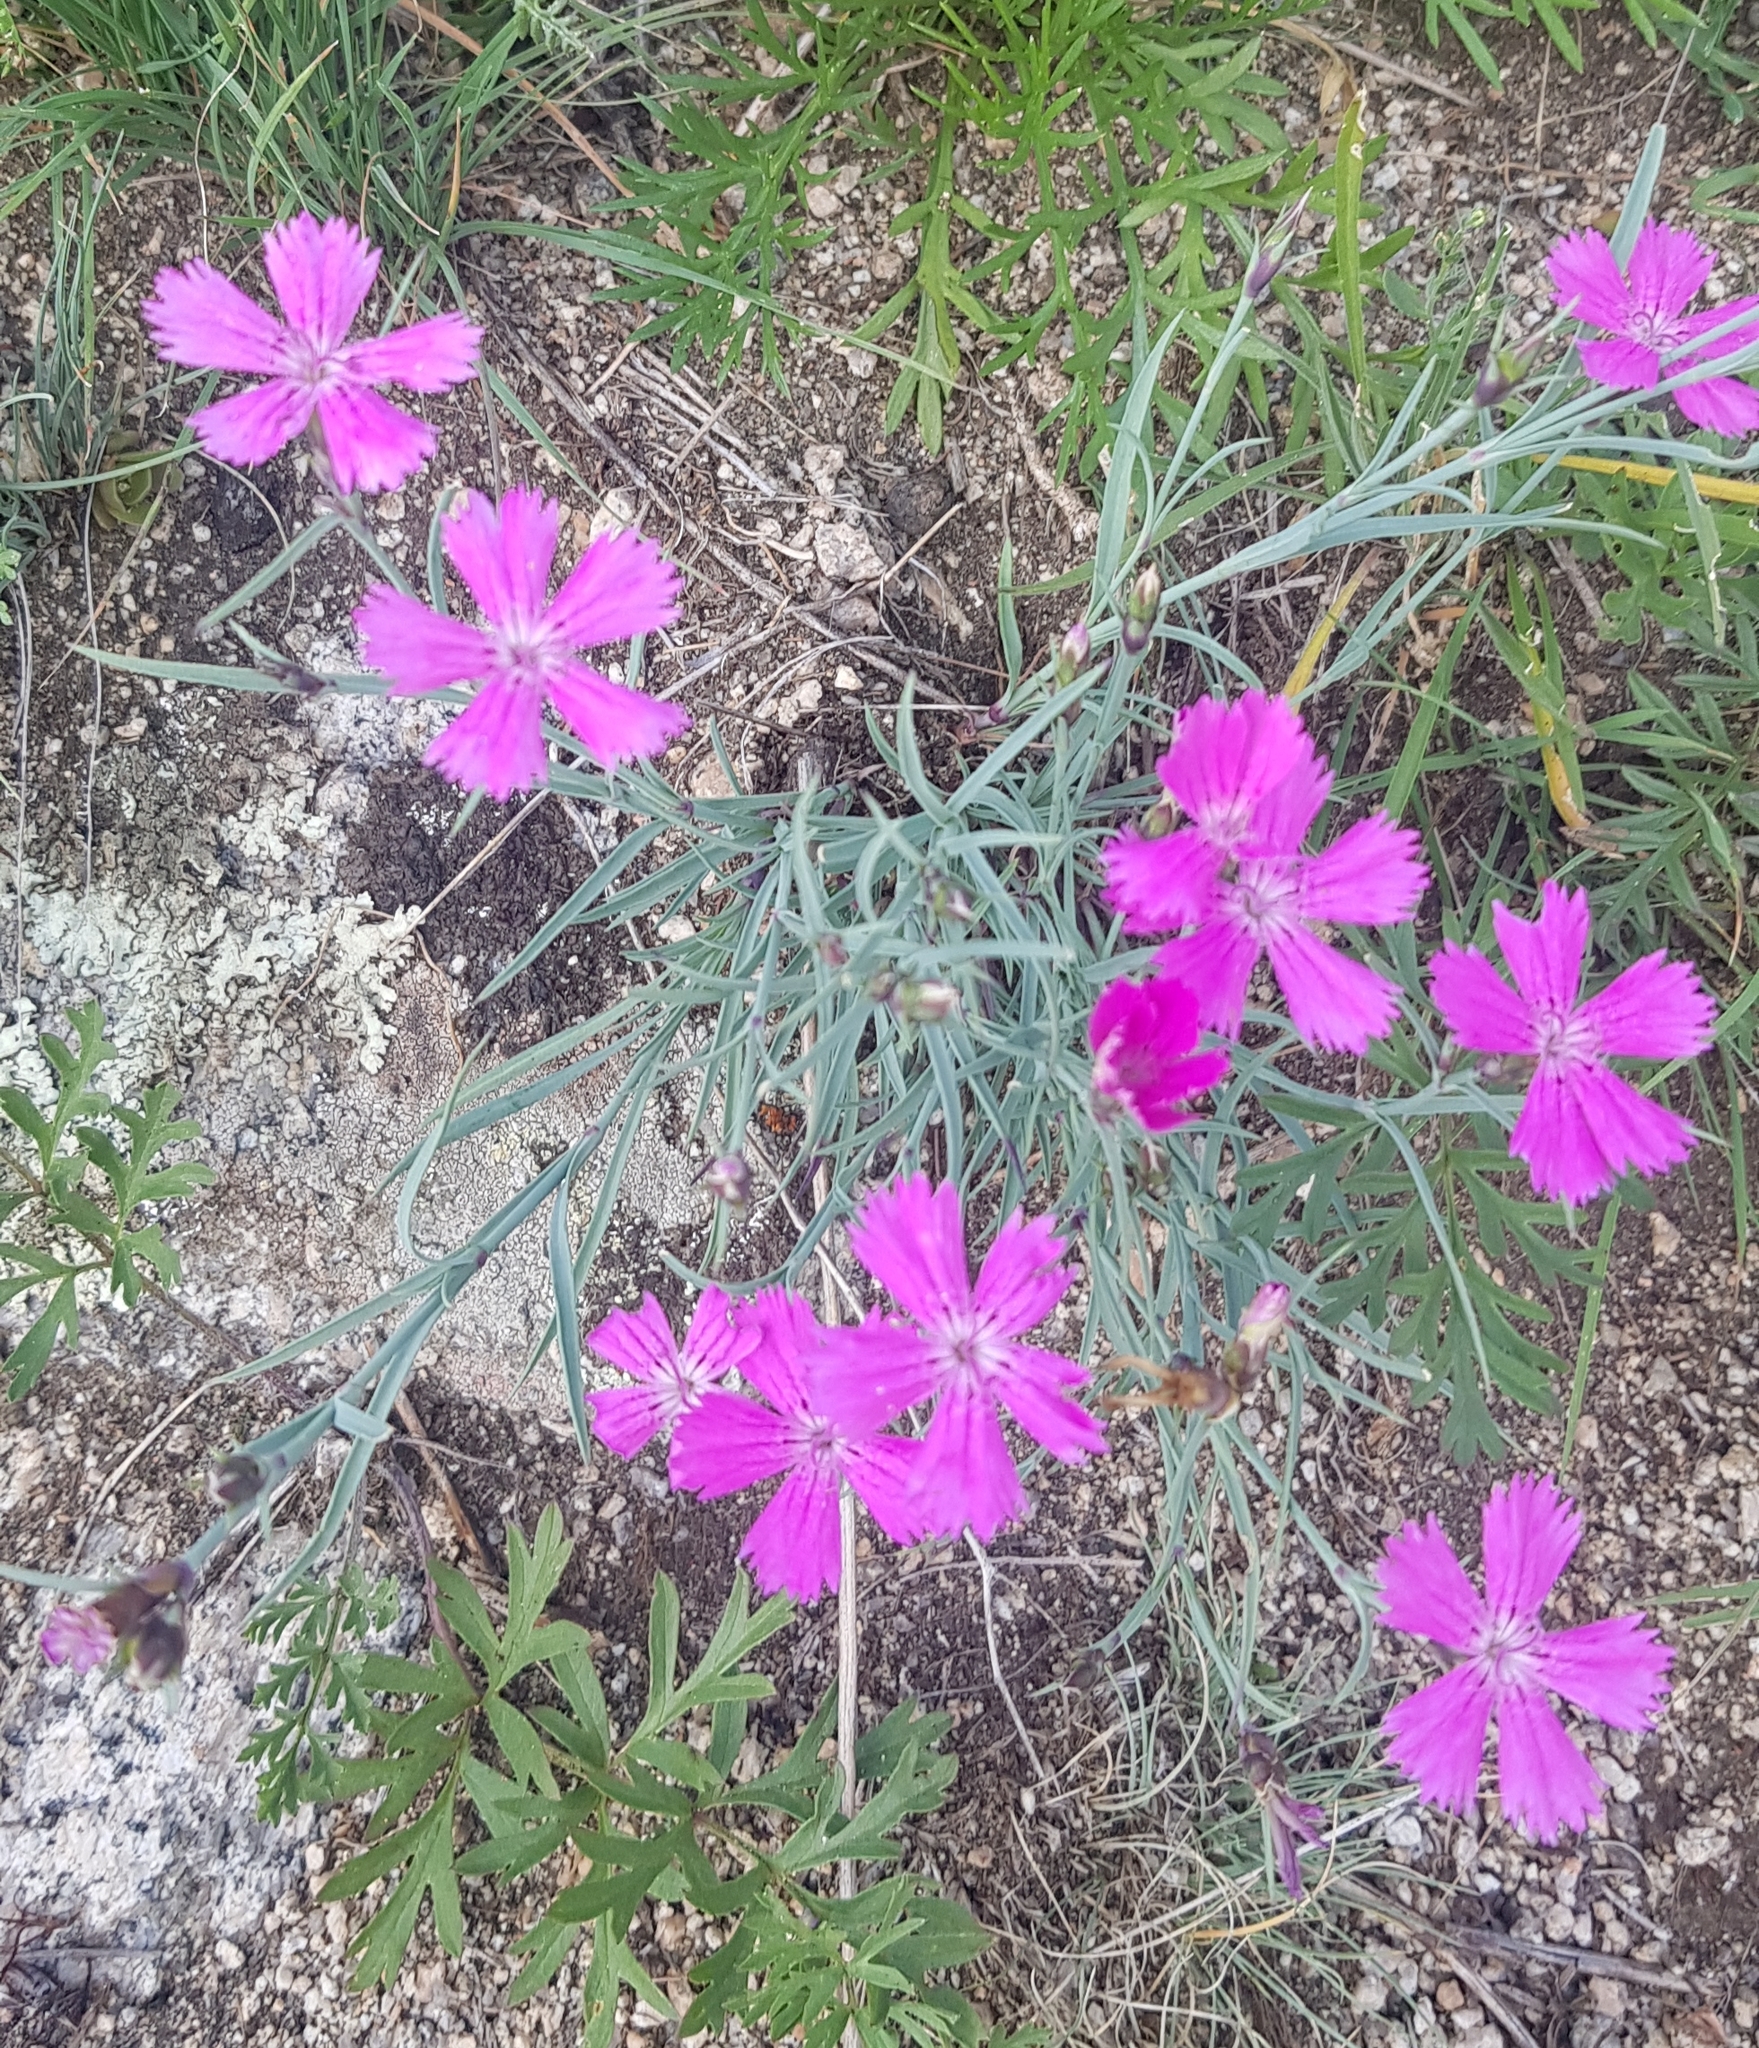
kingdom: Plantae
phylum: Tracheophyta
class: Magnoliopsida
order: Caryophyllales
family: Caryophyllaceae
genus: Dianthus
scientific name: Dianthus chinensis
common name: Rainbow pink
